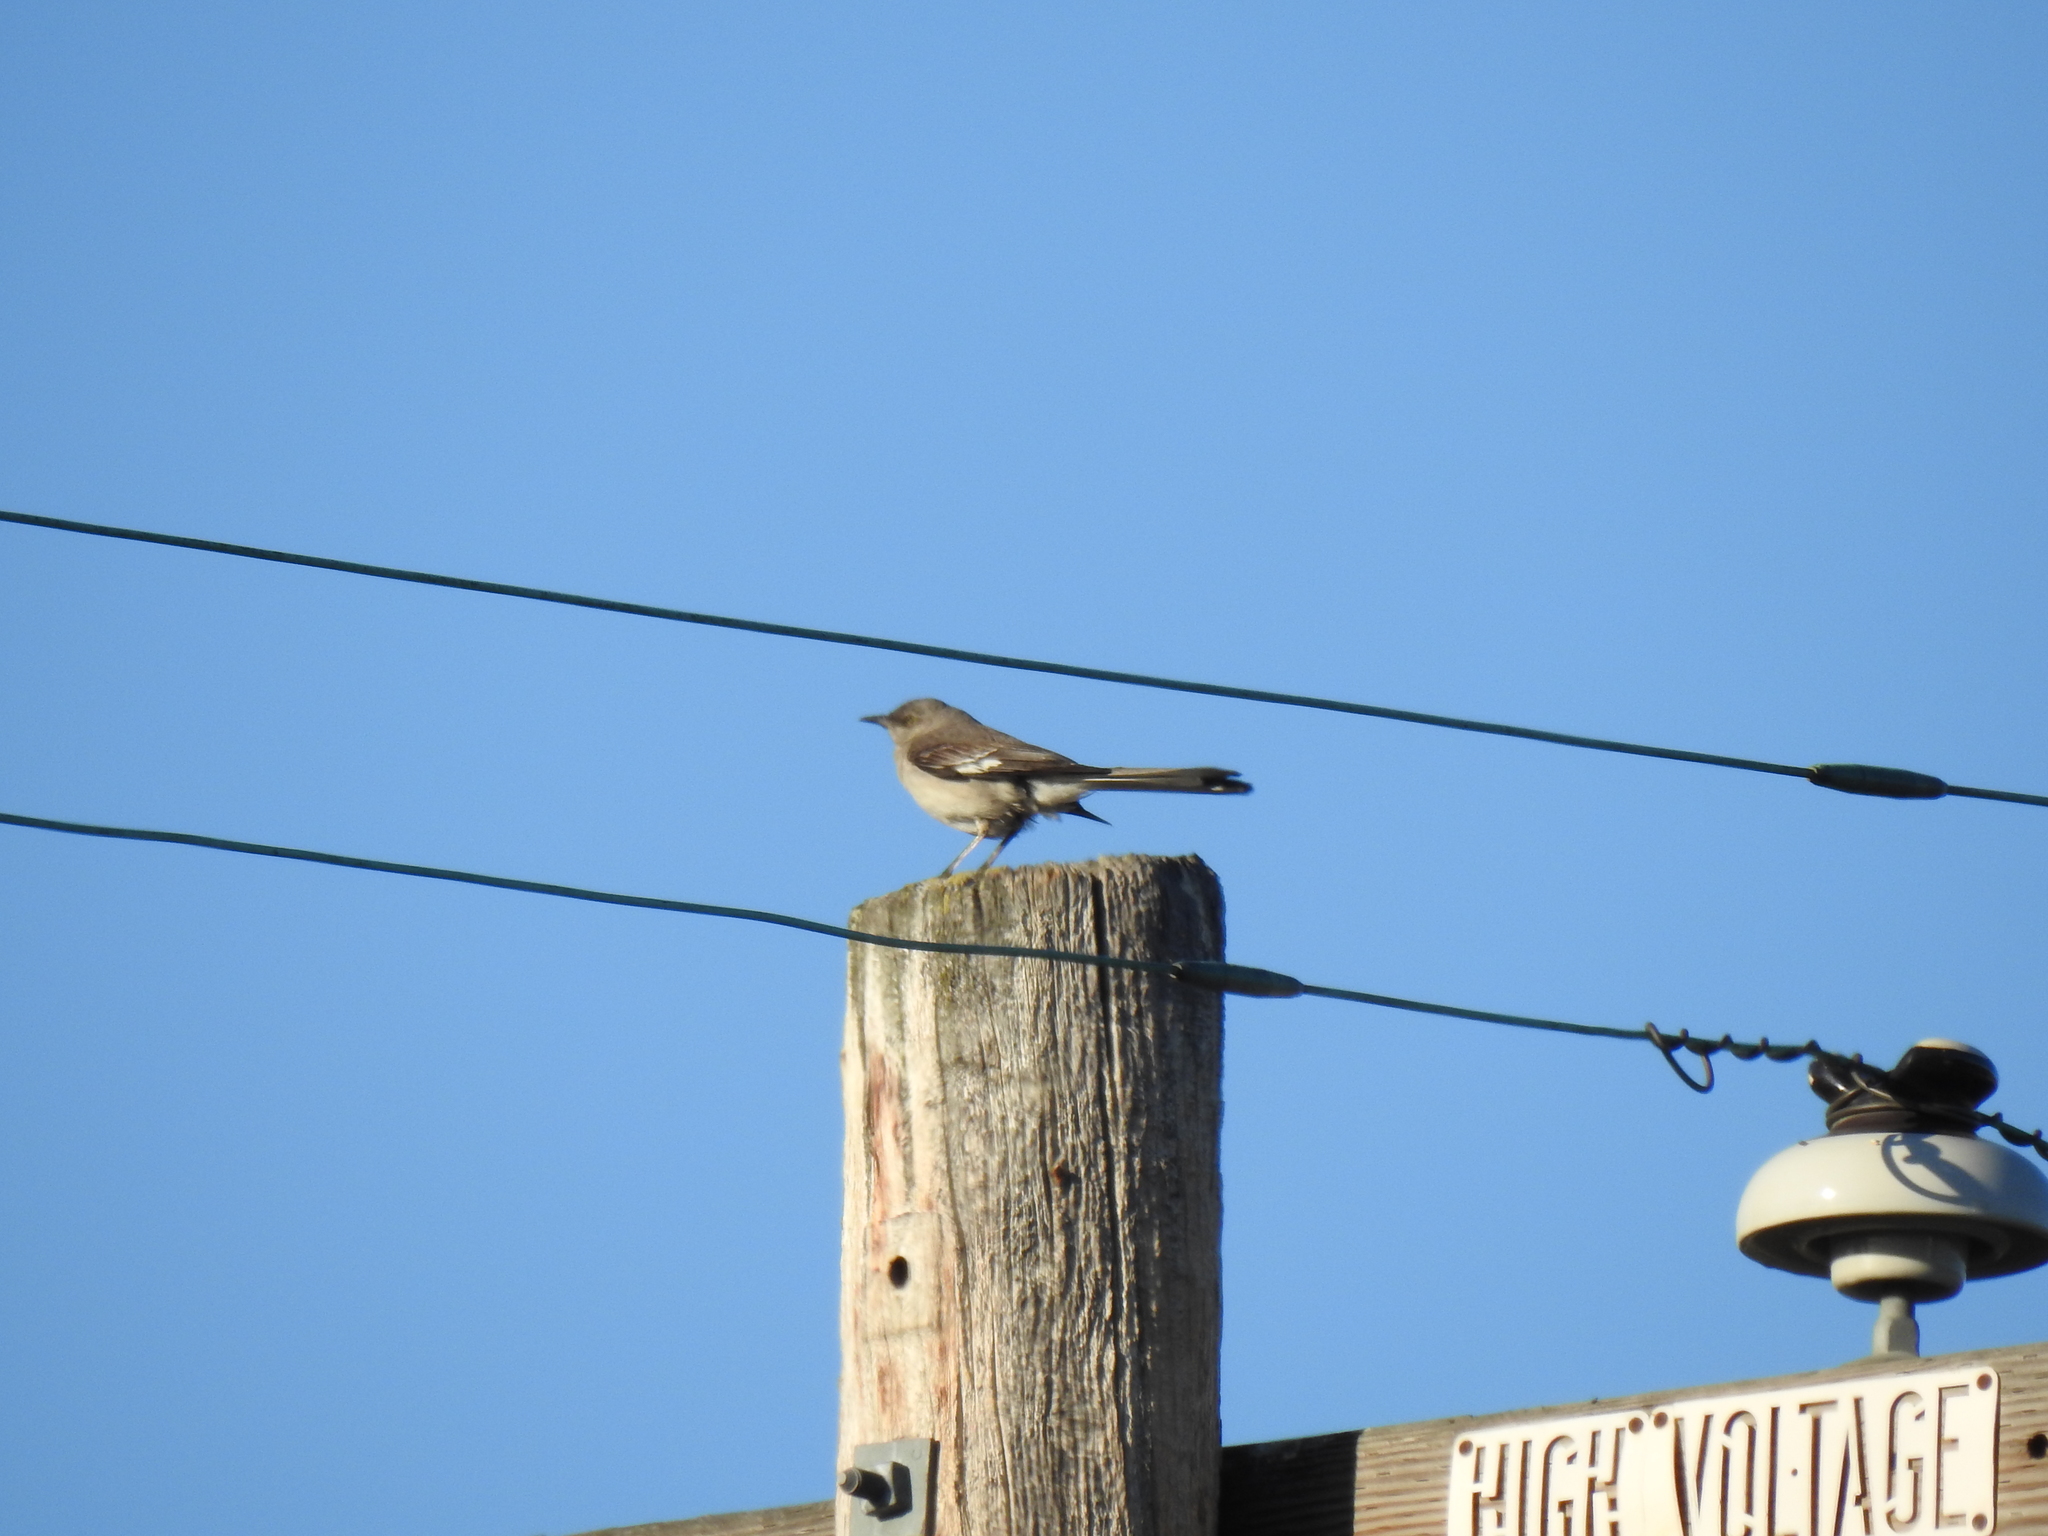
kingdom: Animalia
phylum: Chordata
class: Aves
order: Passeriformes
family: Mimidae
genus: Mimus
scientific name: Mimus polyglottos
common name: Northern mockingbird
